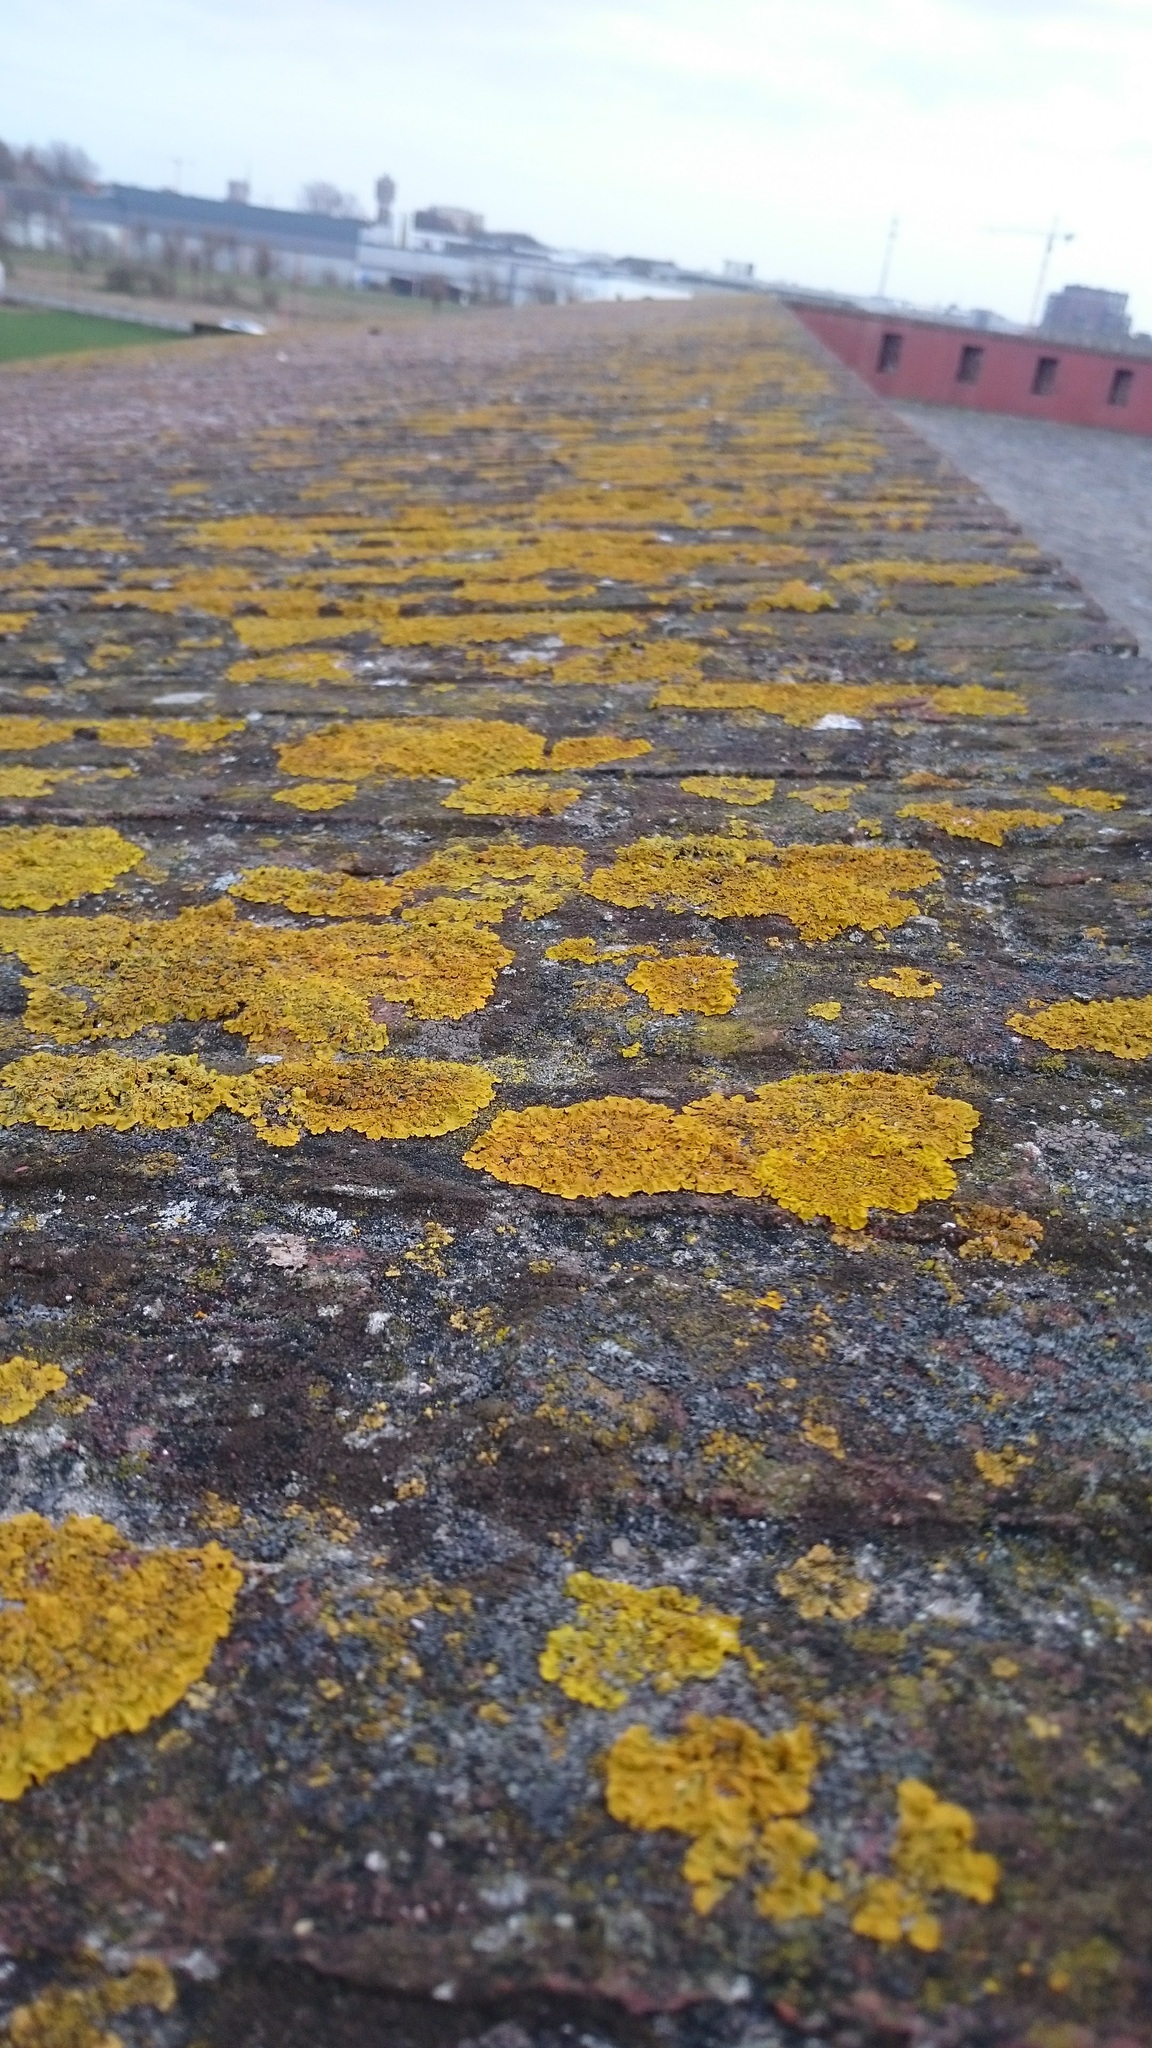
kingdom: Fungi
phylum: Ascomycota
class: Lecanoromycetes
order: Teloschistales
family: Teloschistaceae
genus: Xanthoria
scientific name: Xanthoria parietina
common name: Common orange lichen
